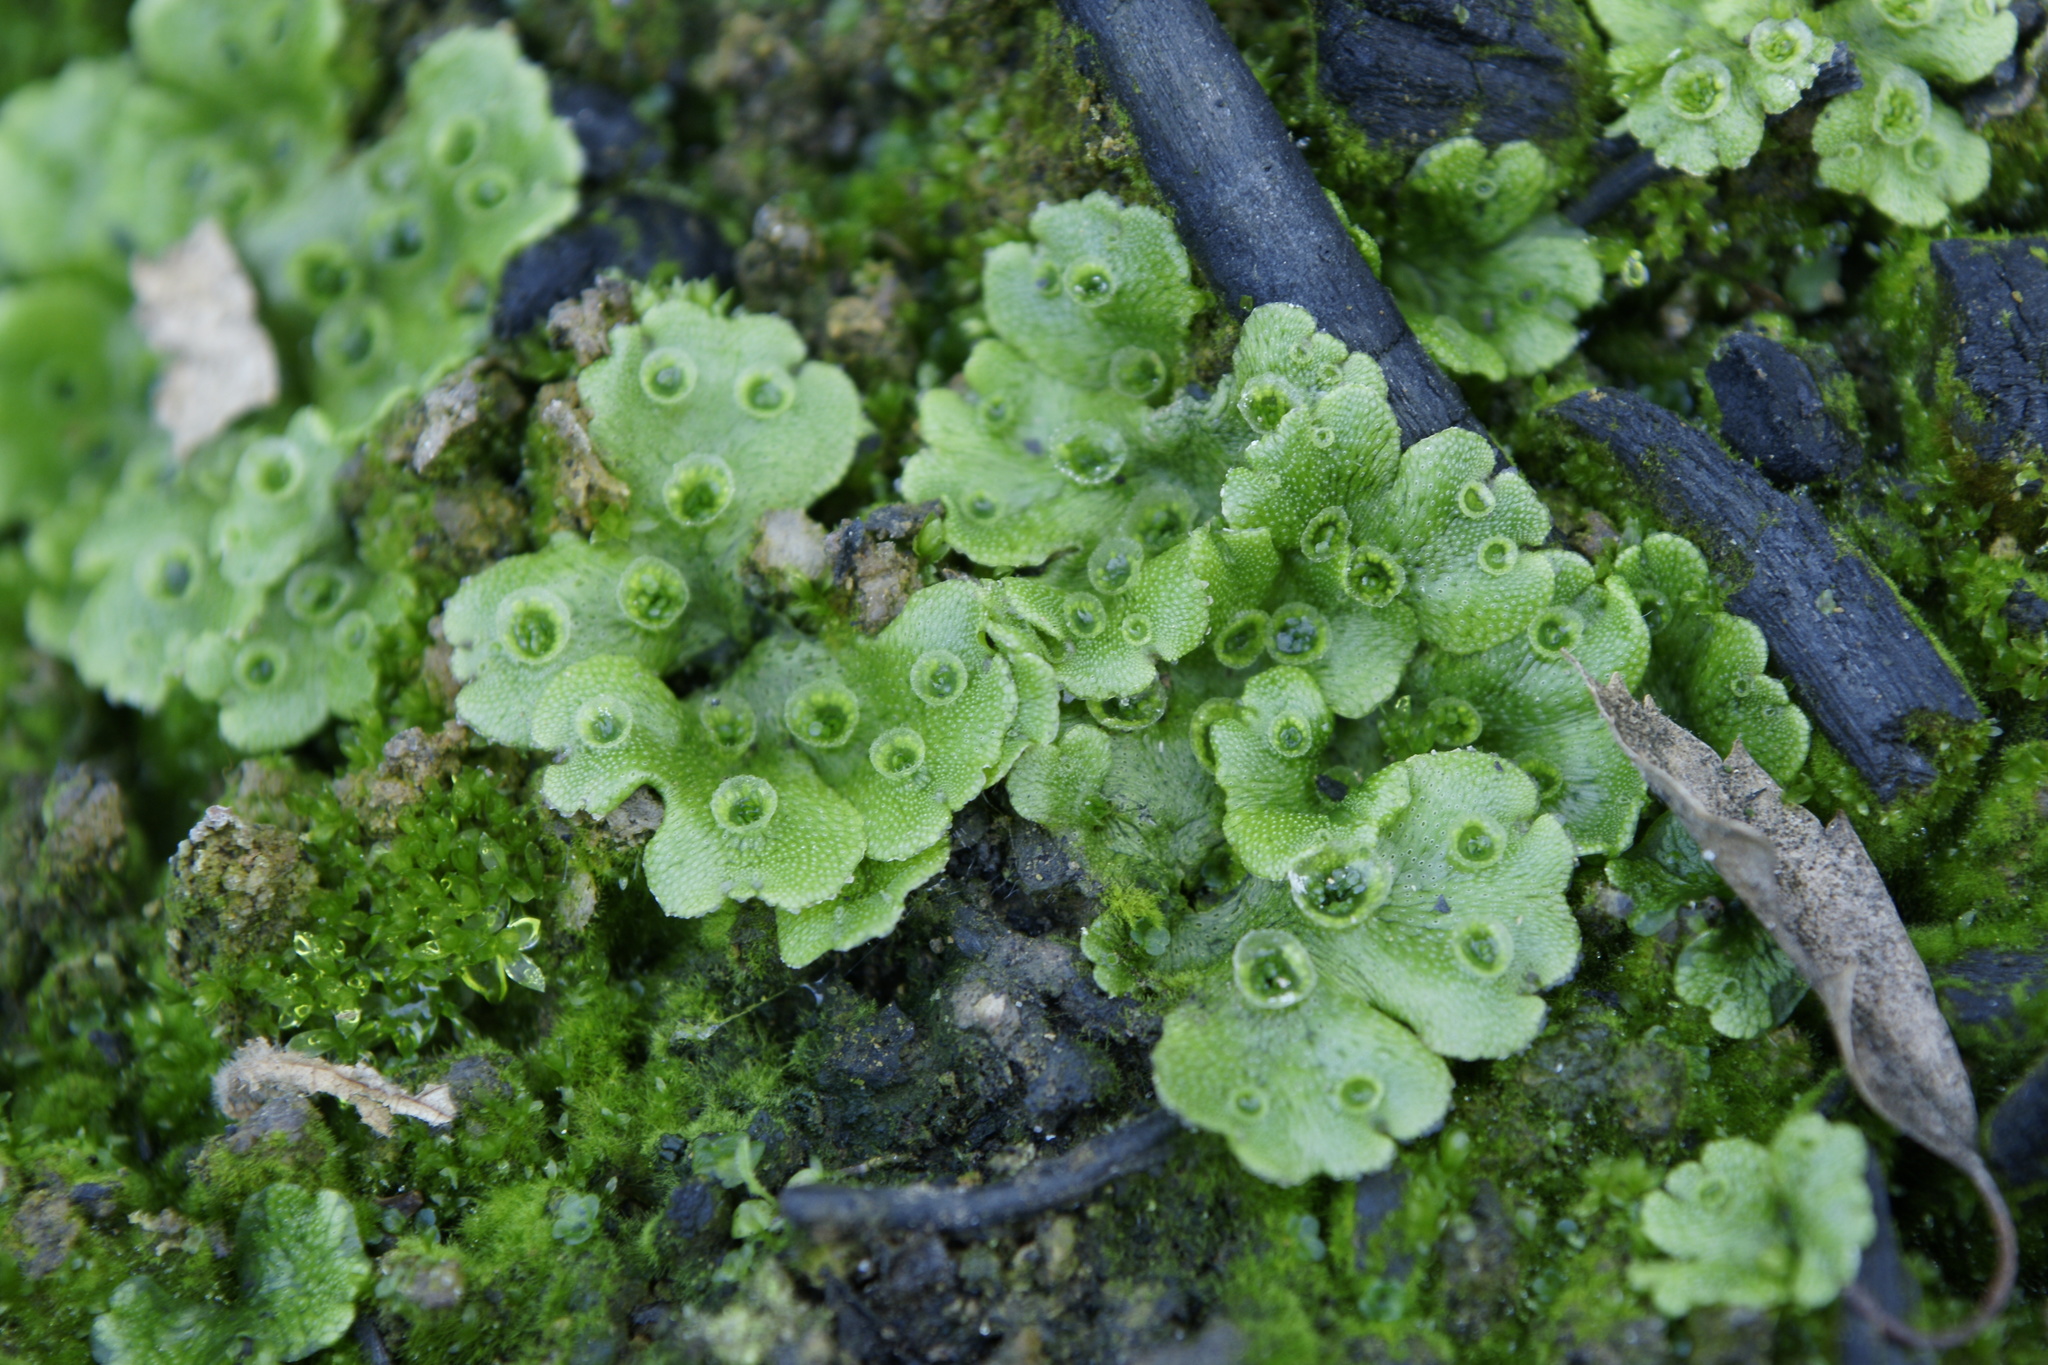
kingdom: Plantae
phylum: Marchantiophyta
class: Marchantiopsida
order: Marchantiales
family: Marchantiaceae
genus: Marchantia
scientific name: Marchantia polymorpha
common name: Common liverwort
